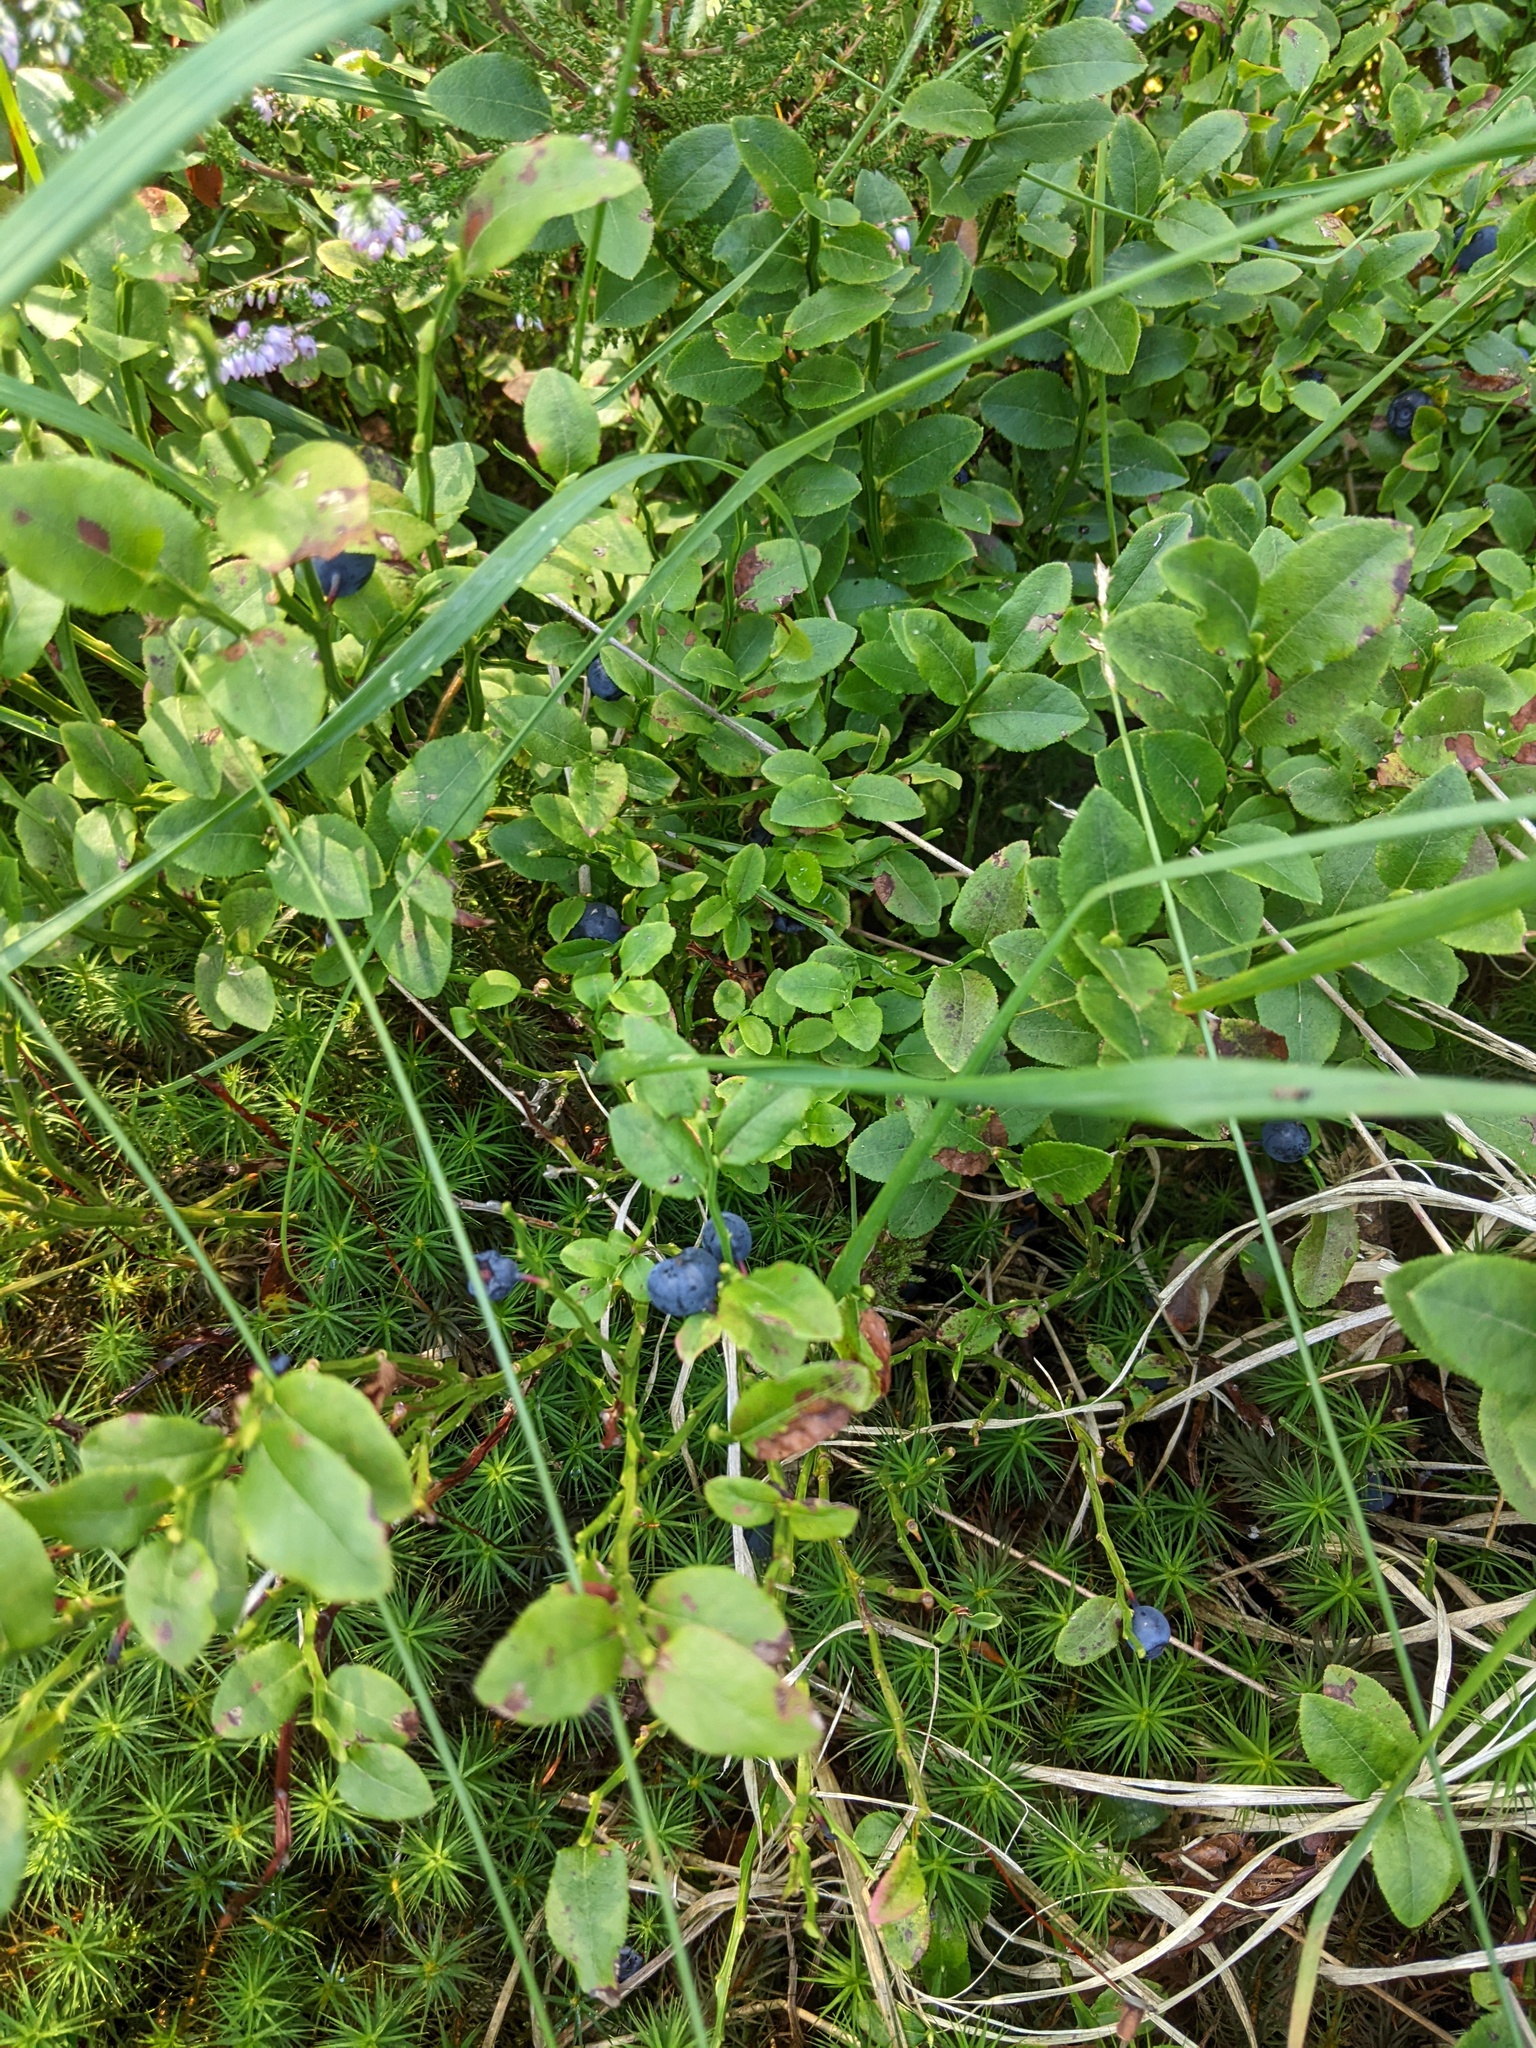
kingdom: Plantae
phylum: Tracheophyta
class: Magnoliopsida
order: Ericales
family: Ericaceae
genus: Vaccinium
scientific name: Vaccinium myrtillus
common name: Bilberry
